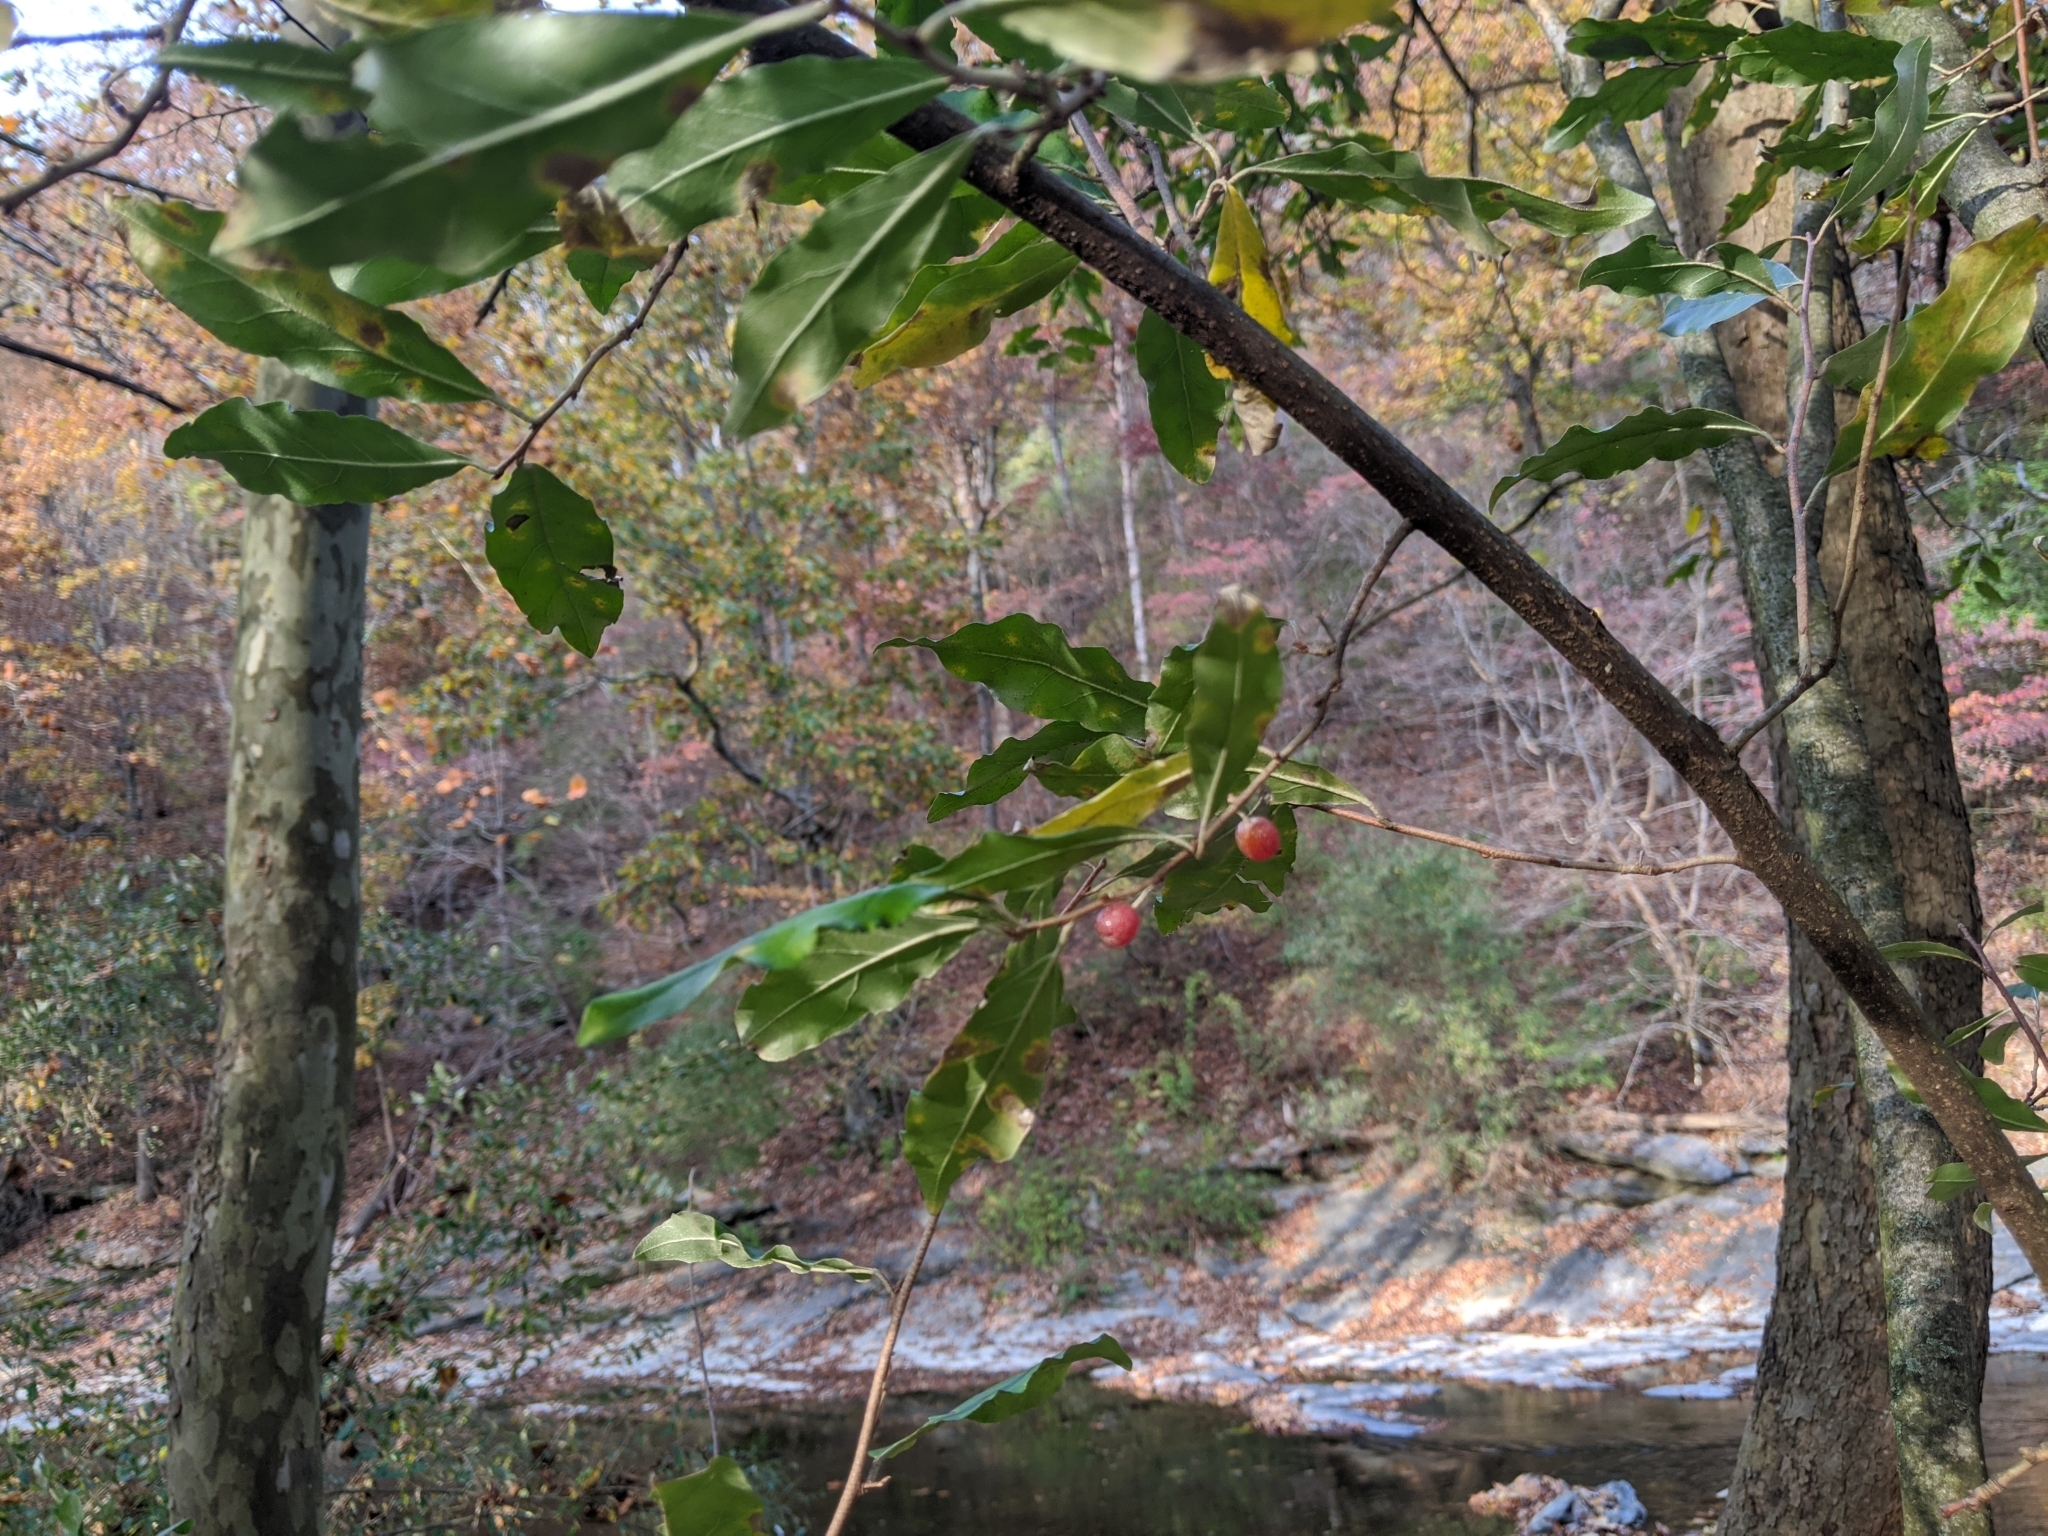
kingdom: Plantae
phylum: Tracheophyta
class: Magnoliopsida
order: Rosales
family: Elaeagnaceae
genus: Elaeagnus
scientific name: Elaeagnus umbellata
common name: Autumn olive
